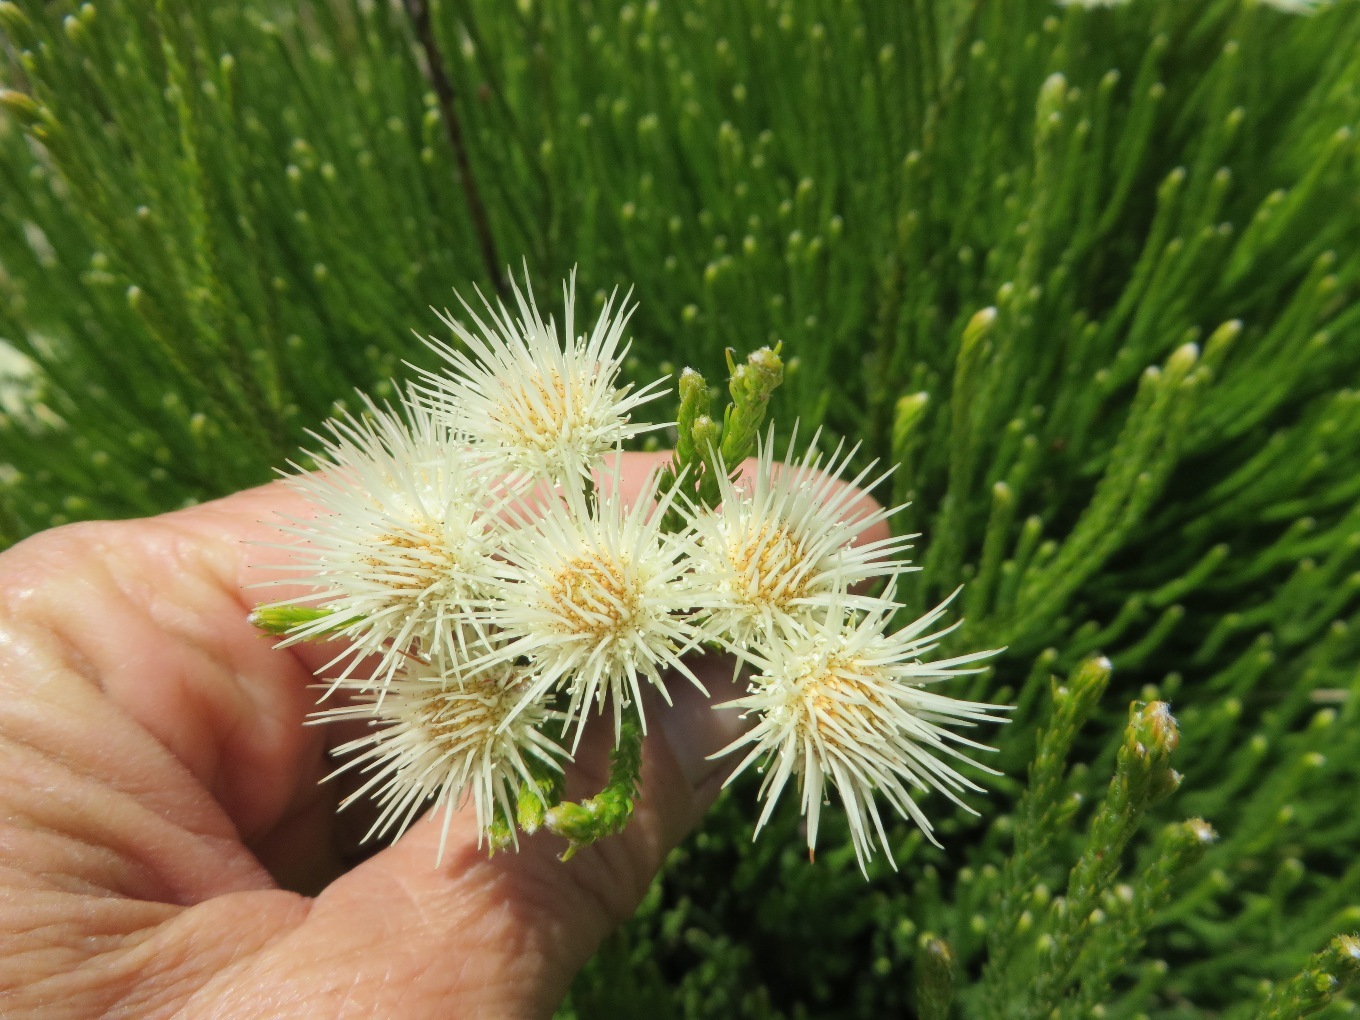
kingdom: Plantae
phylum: Tracheophyta
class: Magnoliopsida
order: Bruniales
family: Bruniaceae
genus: Brunia
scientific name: Brunia paleacea
